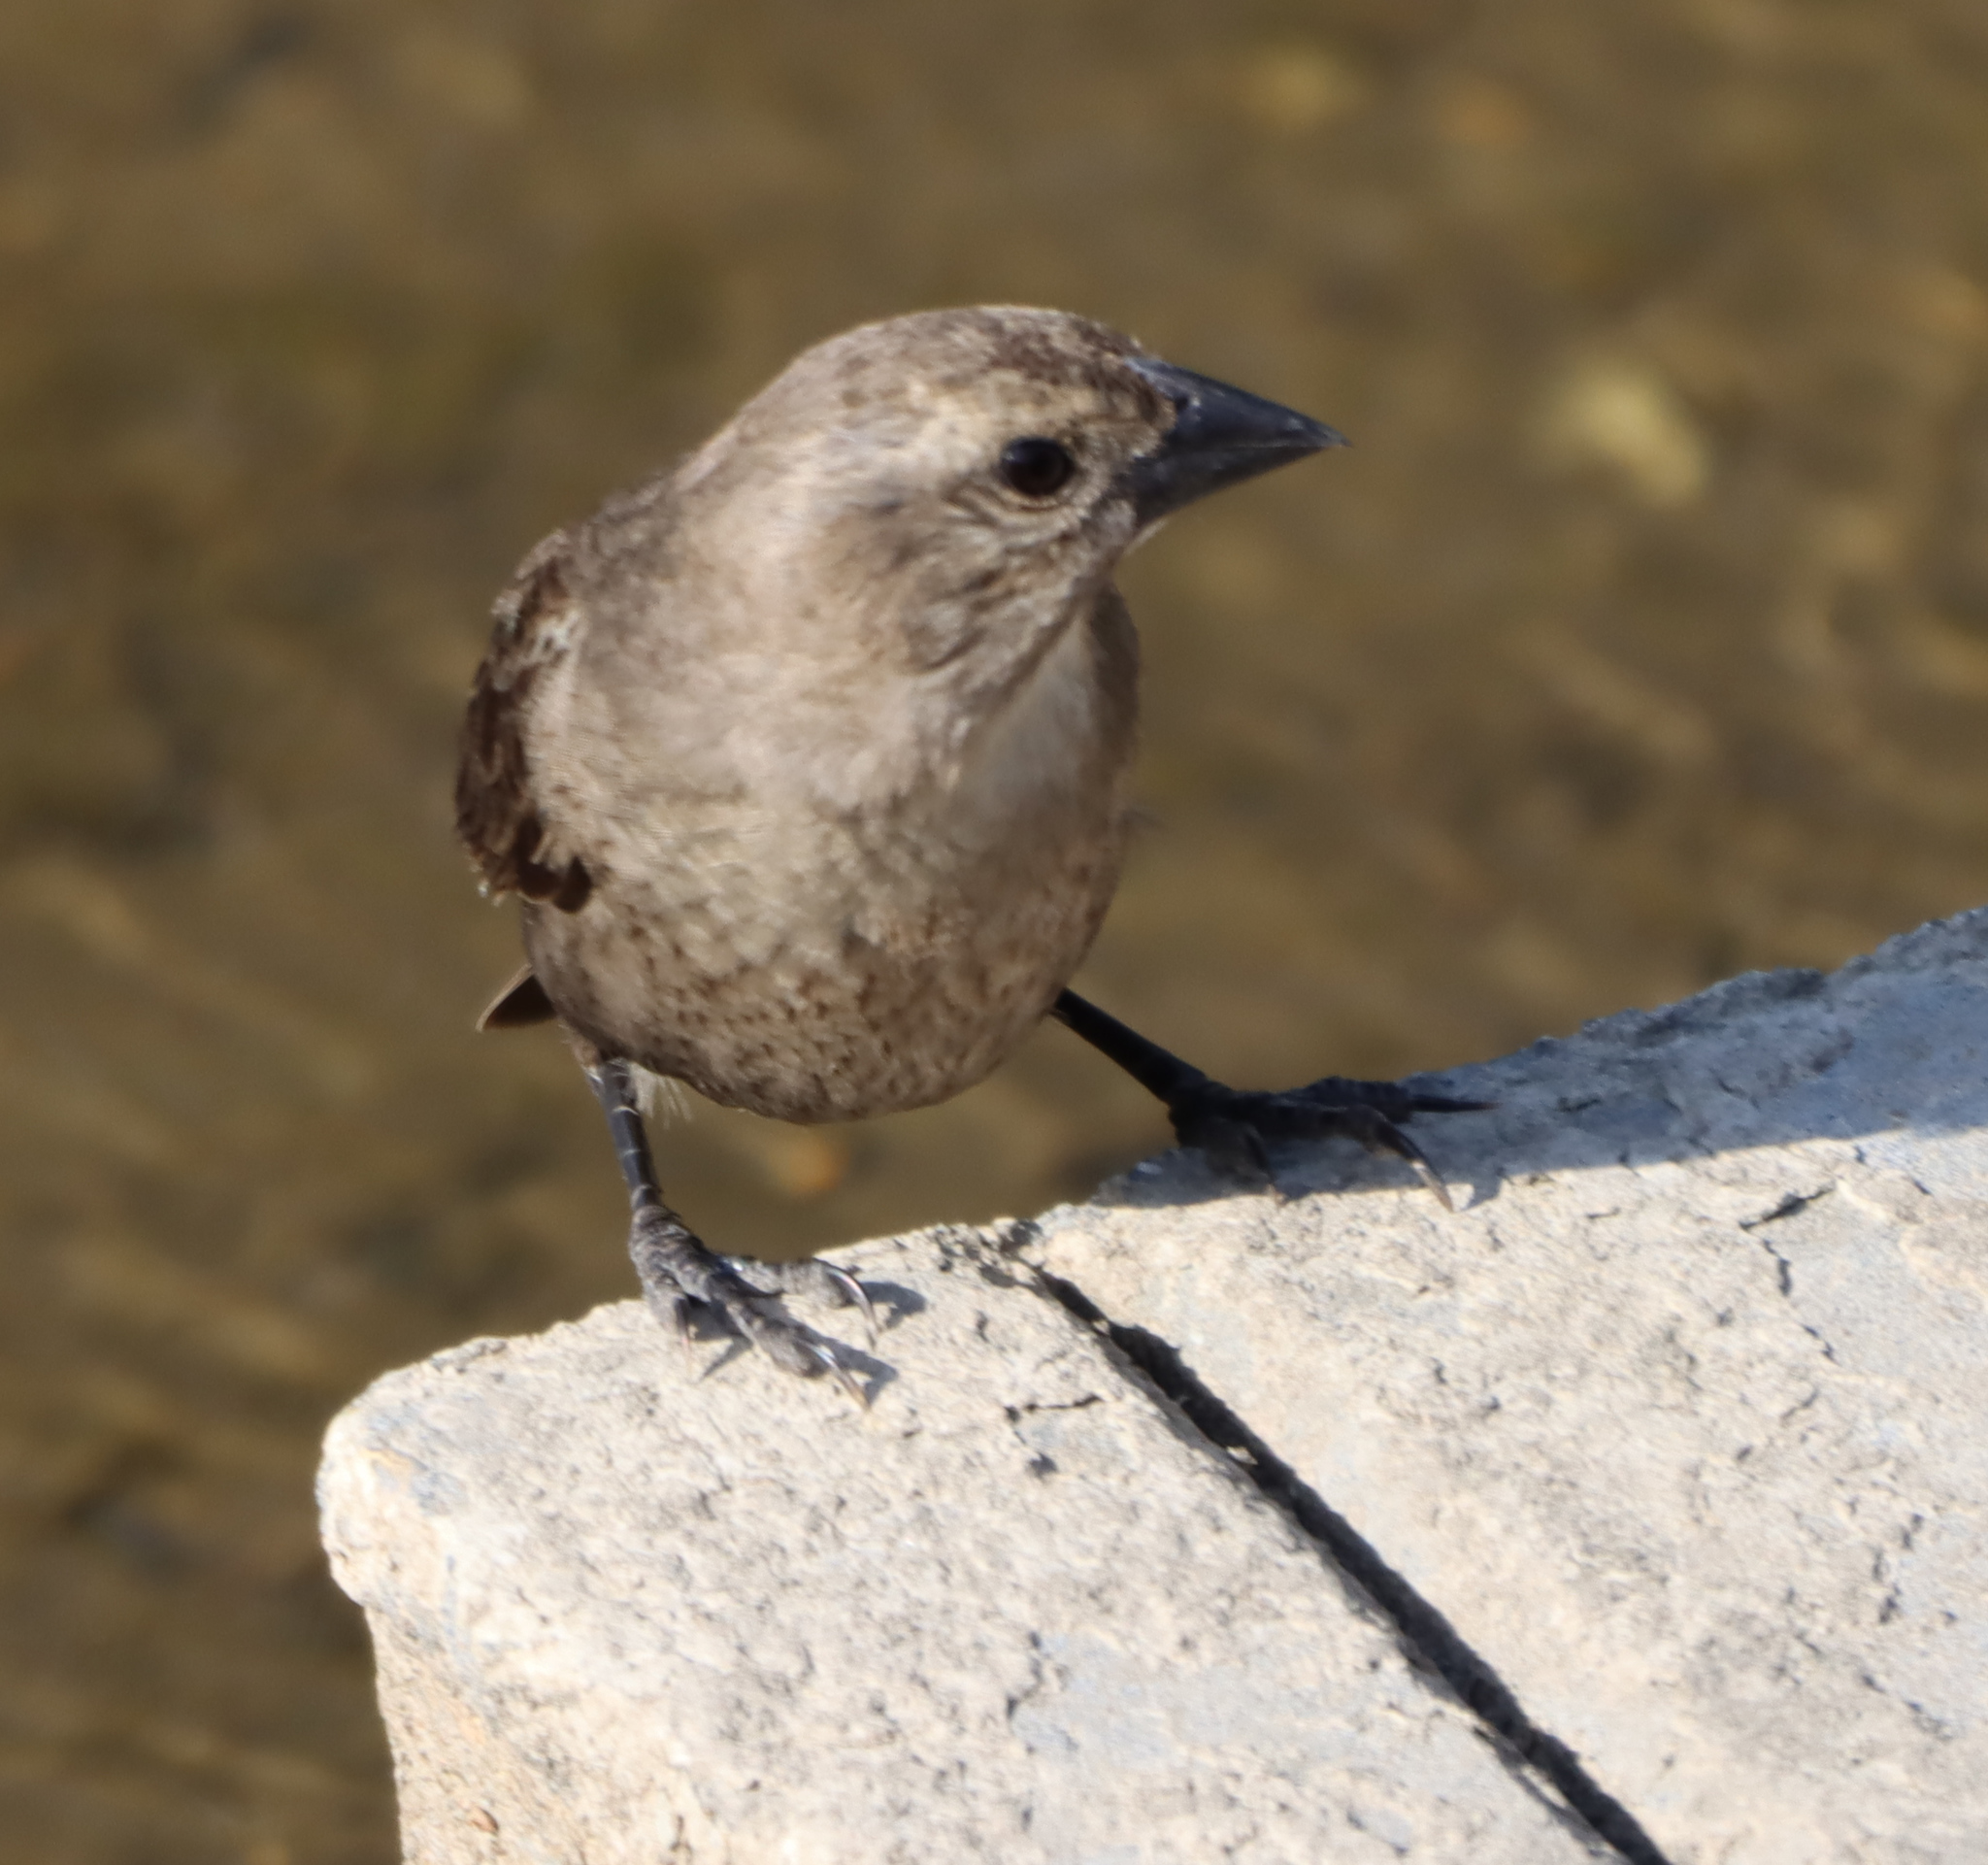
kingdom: Animalia
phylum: Chordata
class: Aves
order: Passeriformes
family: Icteridae
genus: Molothrus
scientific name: Molothrus ater
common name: Brown-headed cowbird
